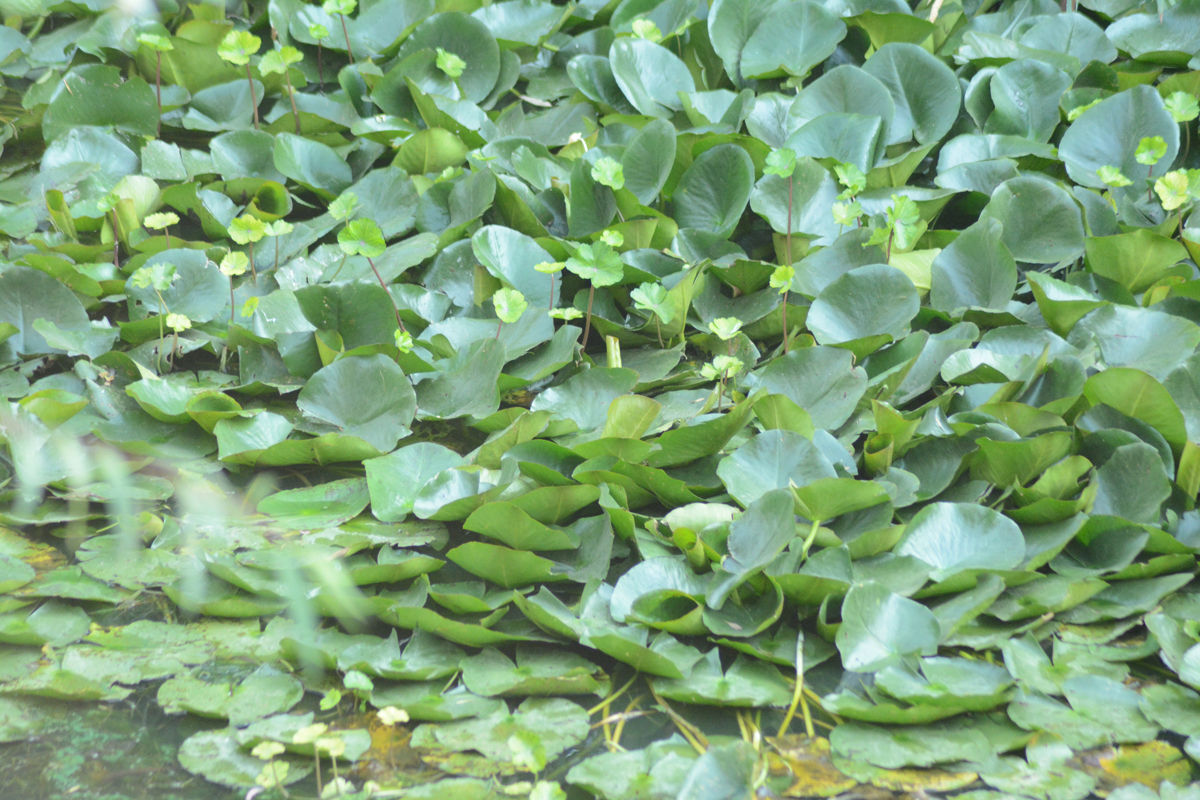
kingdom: Plantae
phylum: Tracheophyta
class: Magnoliopsida
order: Nymphaeales
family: Nymphaeaceae
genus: Nymphaea
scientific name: Nymphaea mexicana
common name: Banana water-lily
